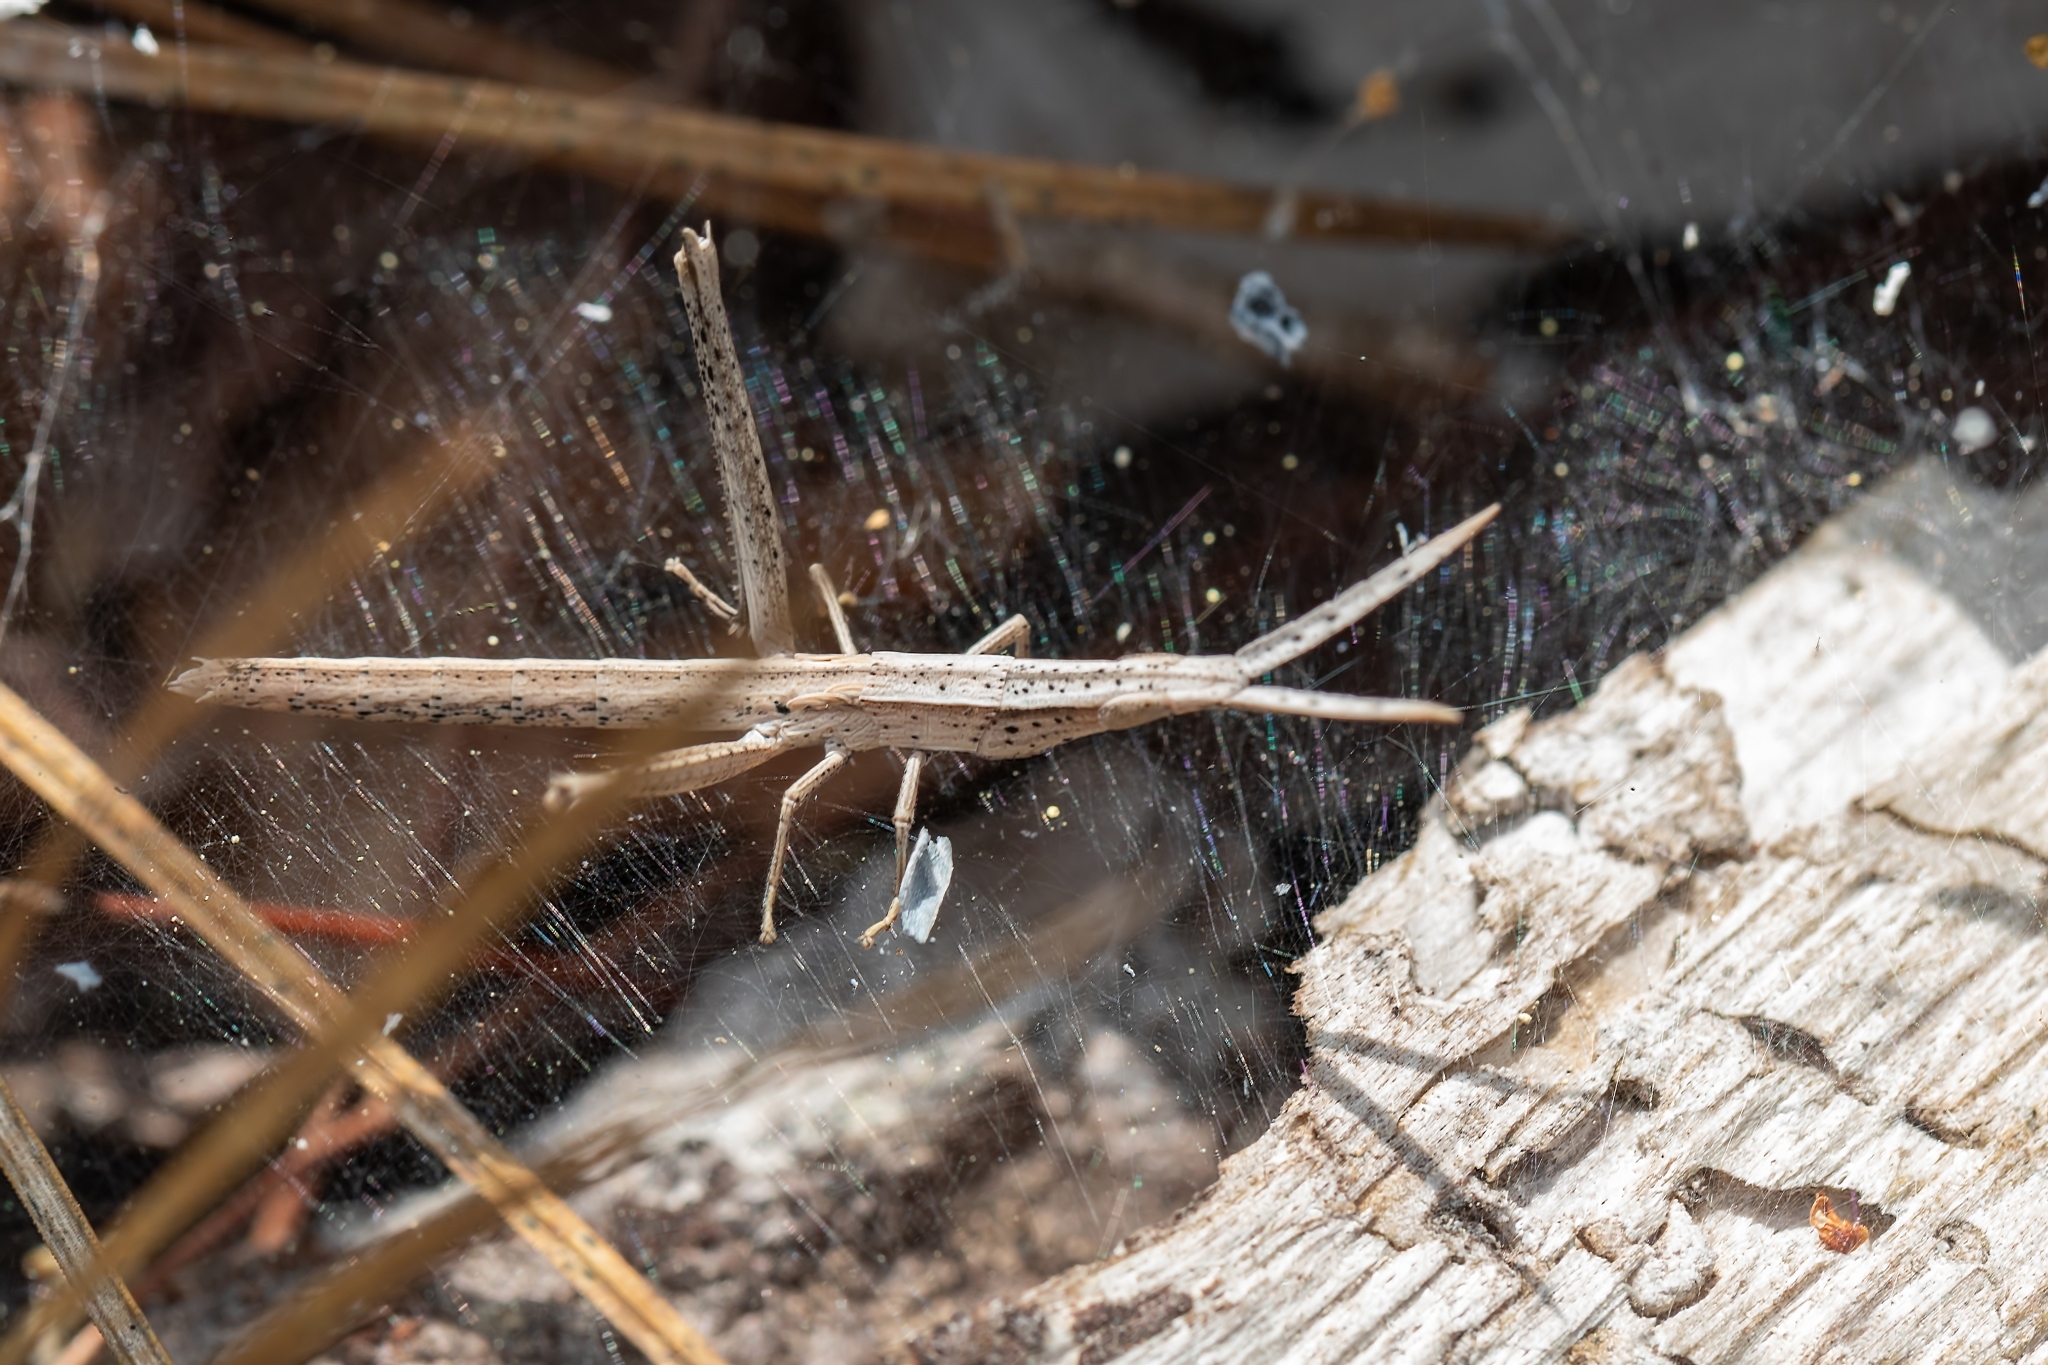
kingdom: Animalia
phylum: Arthropoda
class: Insecta
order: Orthoptera
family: Acrididae
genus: Achurum
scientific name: Achurum carinatum
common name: Long-headed toothpick grasshopper
